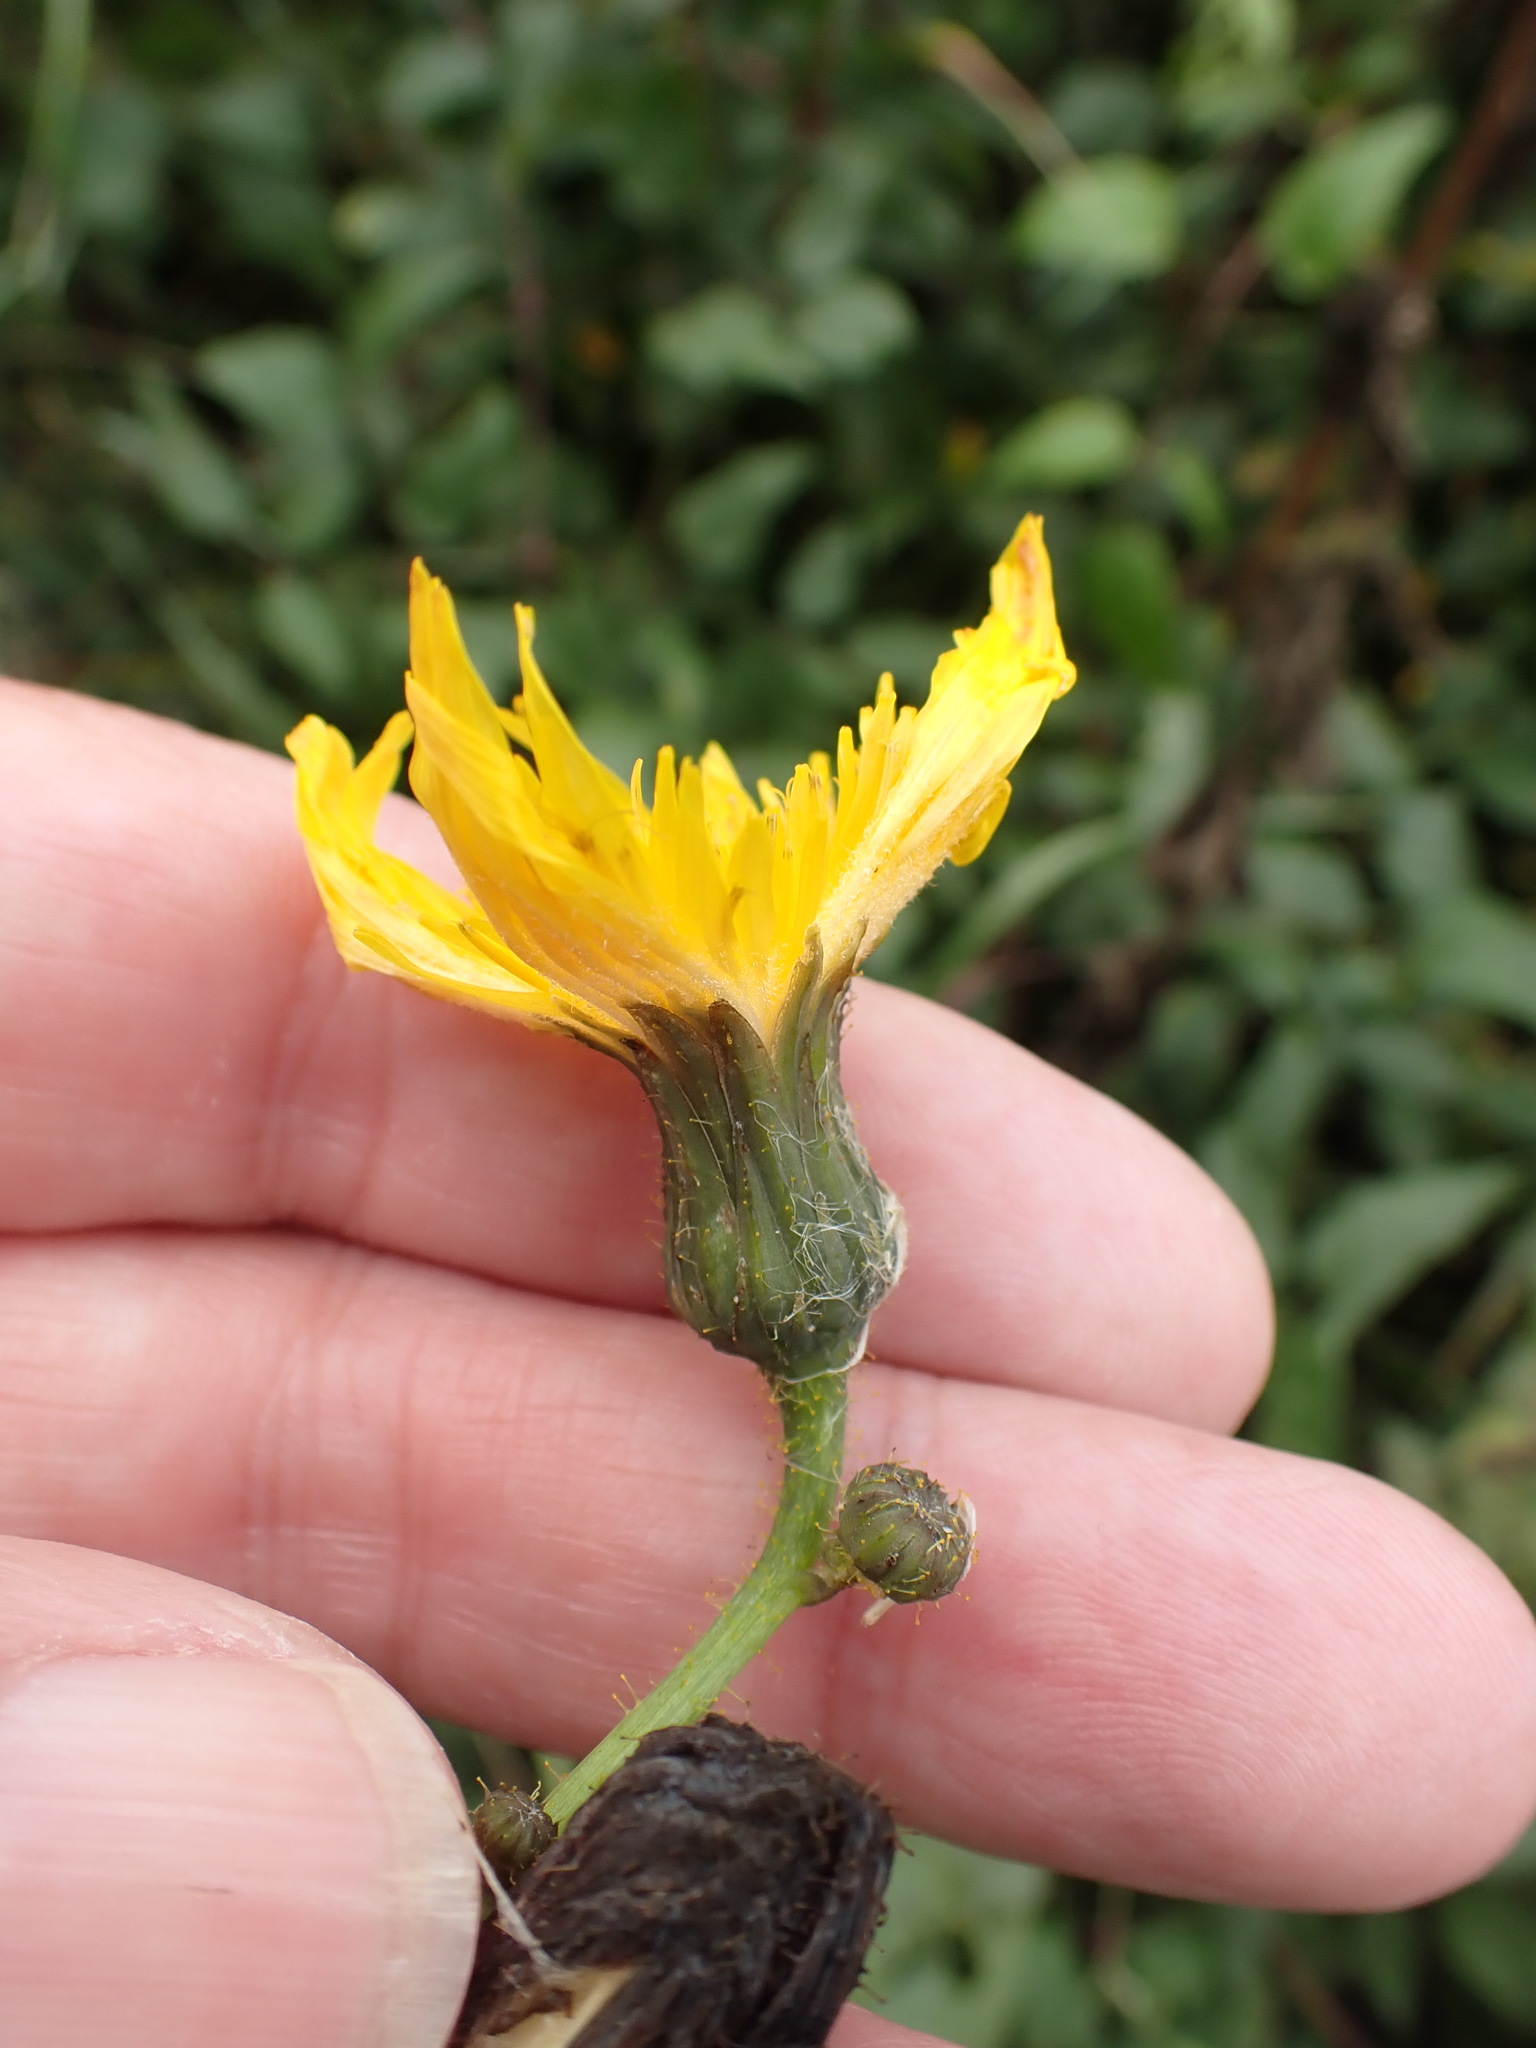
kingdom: Plantae
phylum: Tracheophyta
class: Magnoliopsida
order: Asterales
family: Asteraceae
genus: Sonchus
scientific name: Sonchus arvensis
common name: Perennial sow-thistle
